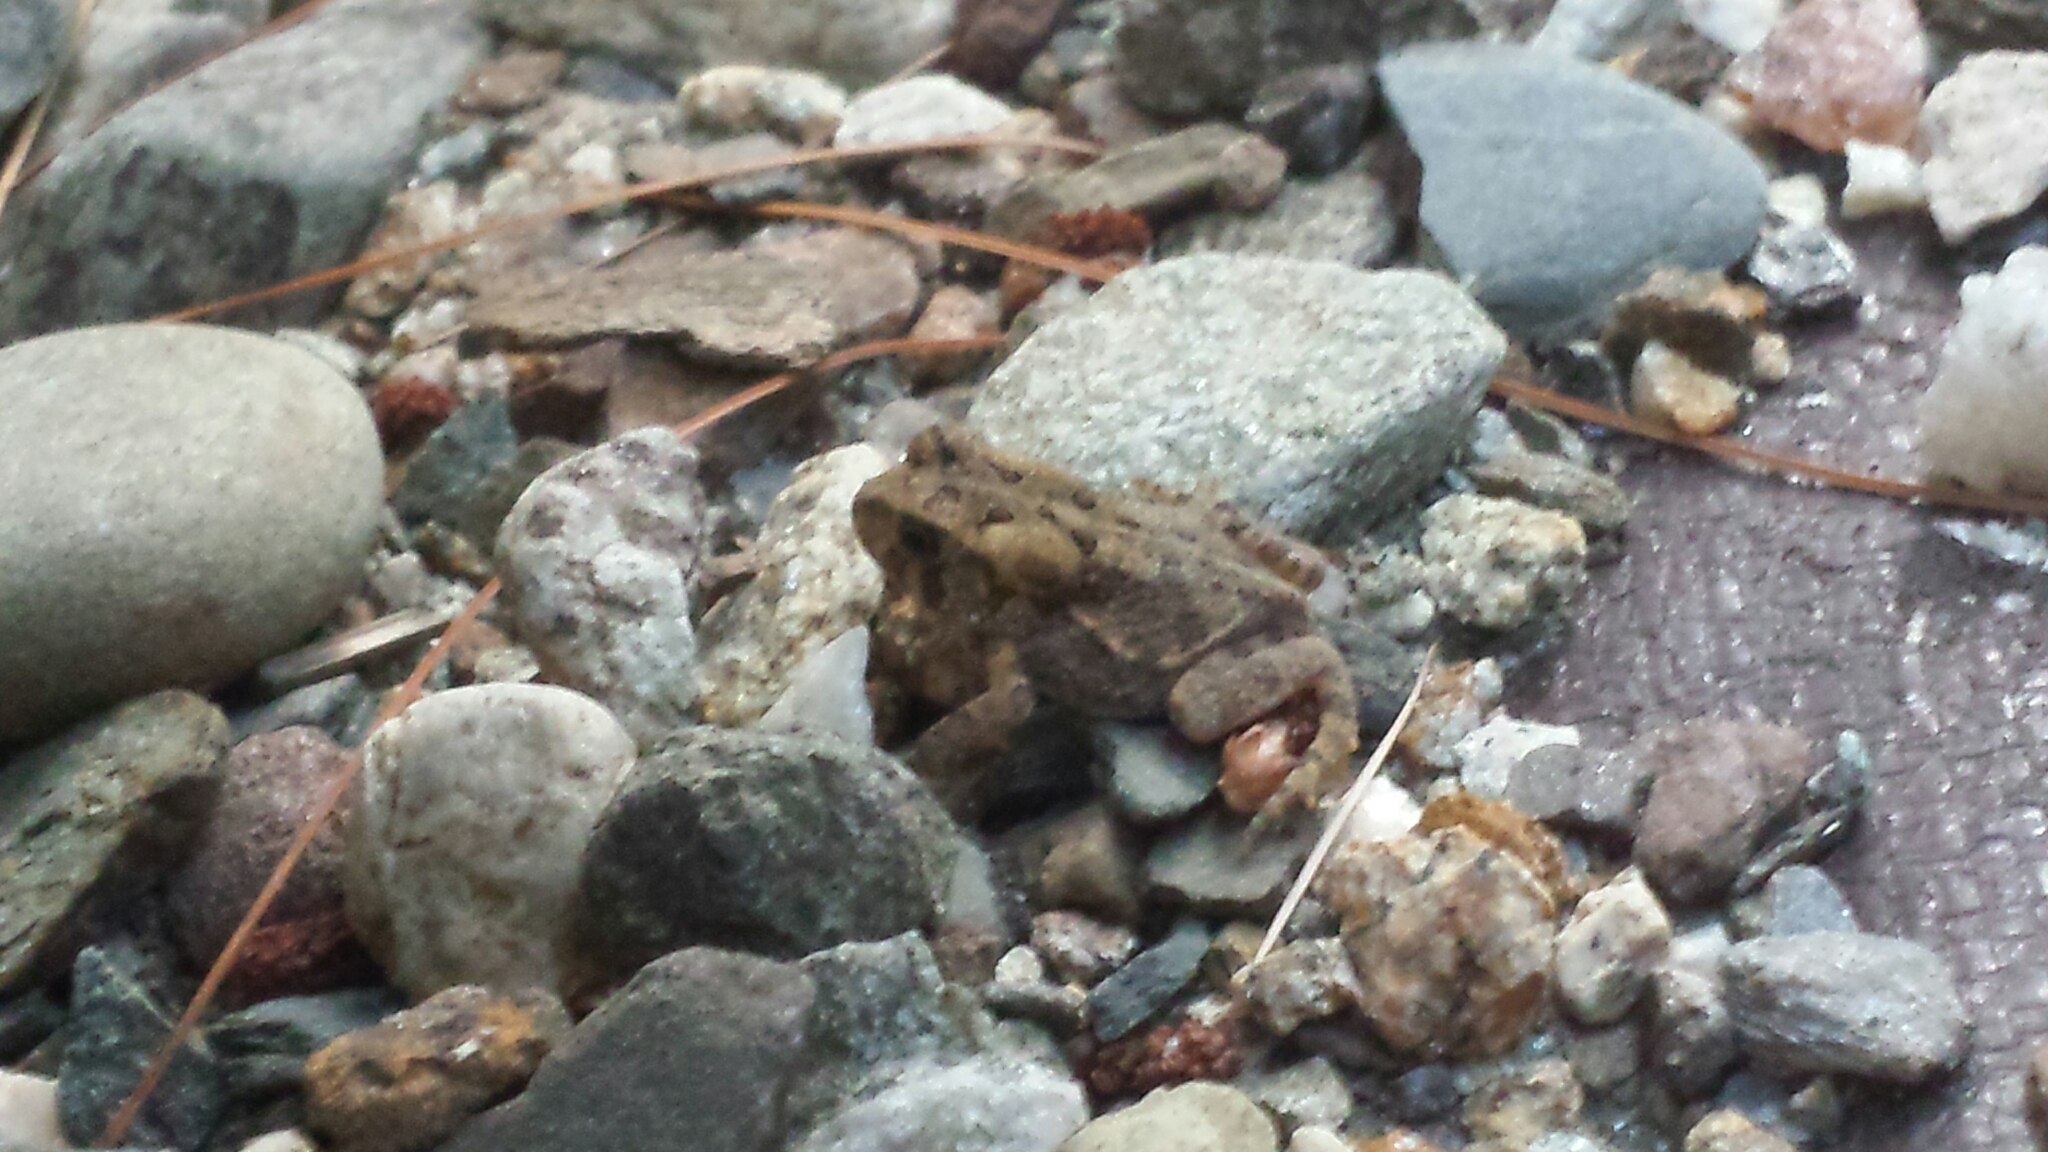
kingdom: Animalia
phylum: Chordata
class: Amphibia
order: Anura
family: Bufonidae
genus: Anaxyrus
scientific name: Anaxyrus americanus
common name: American toad
